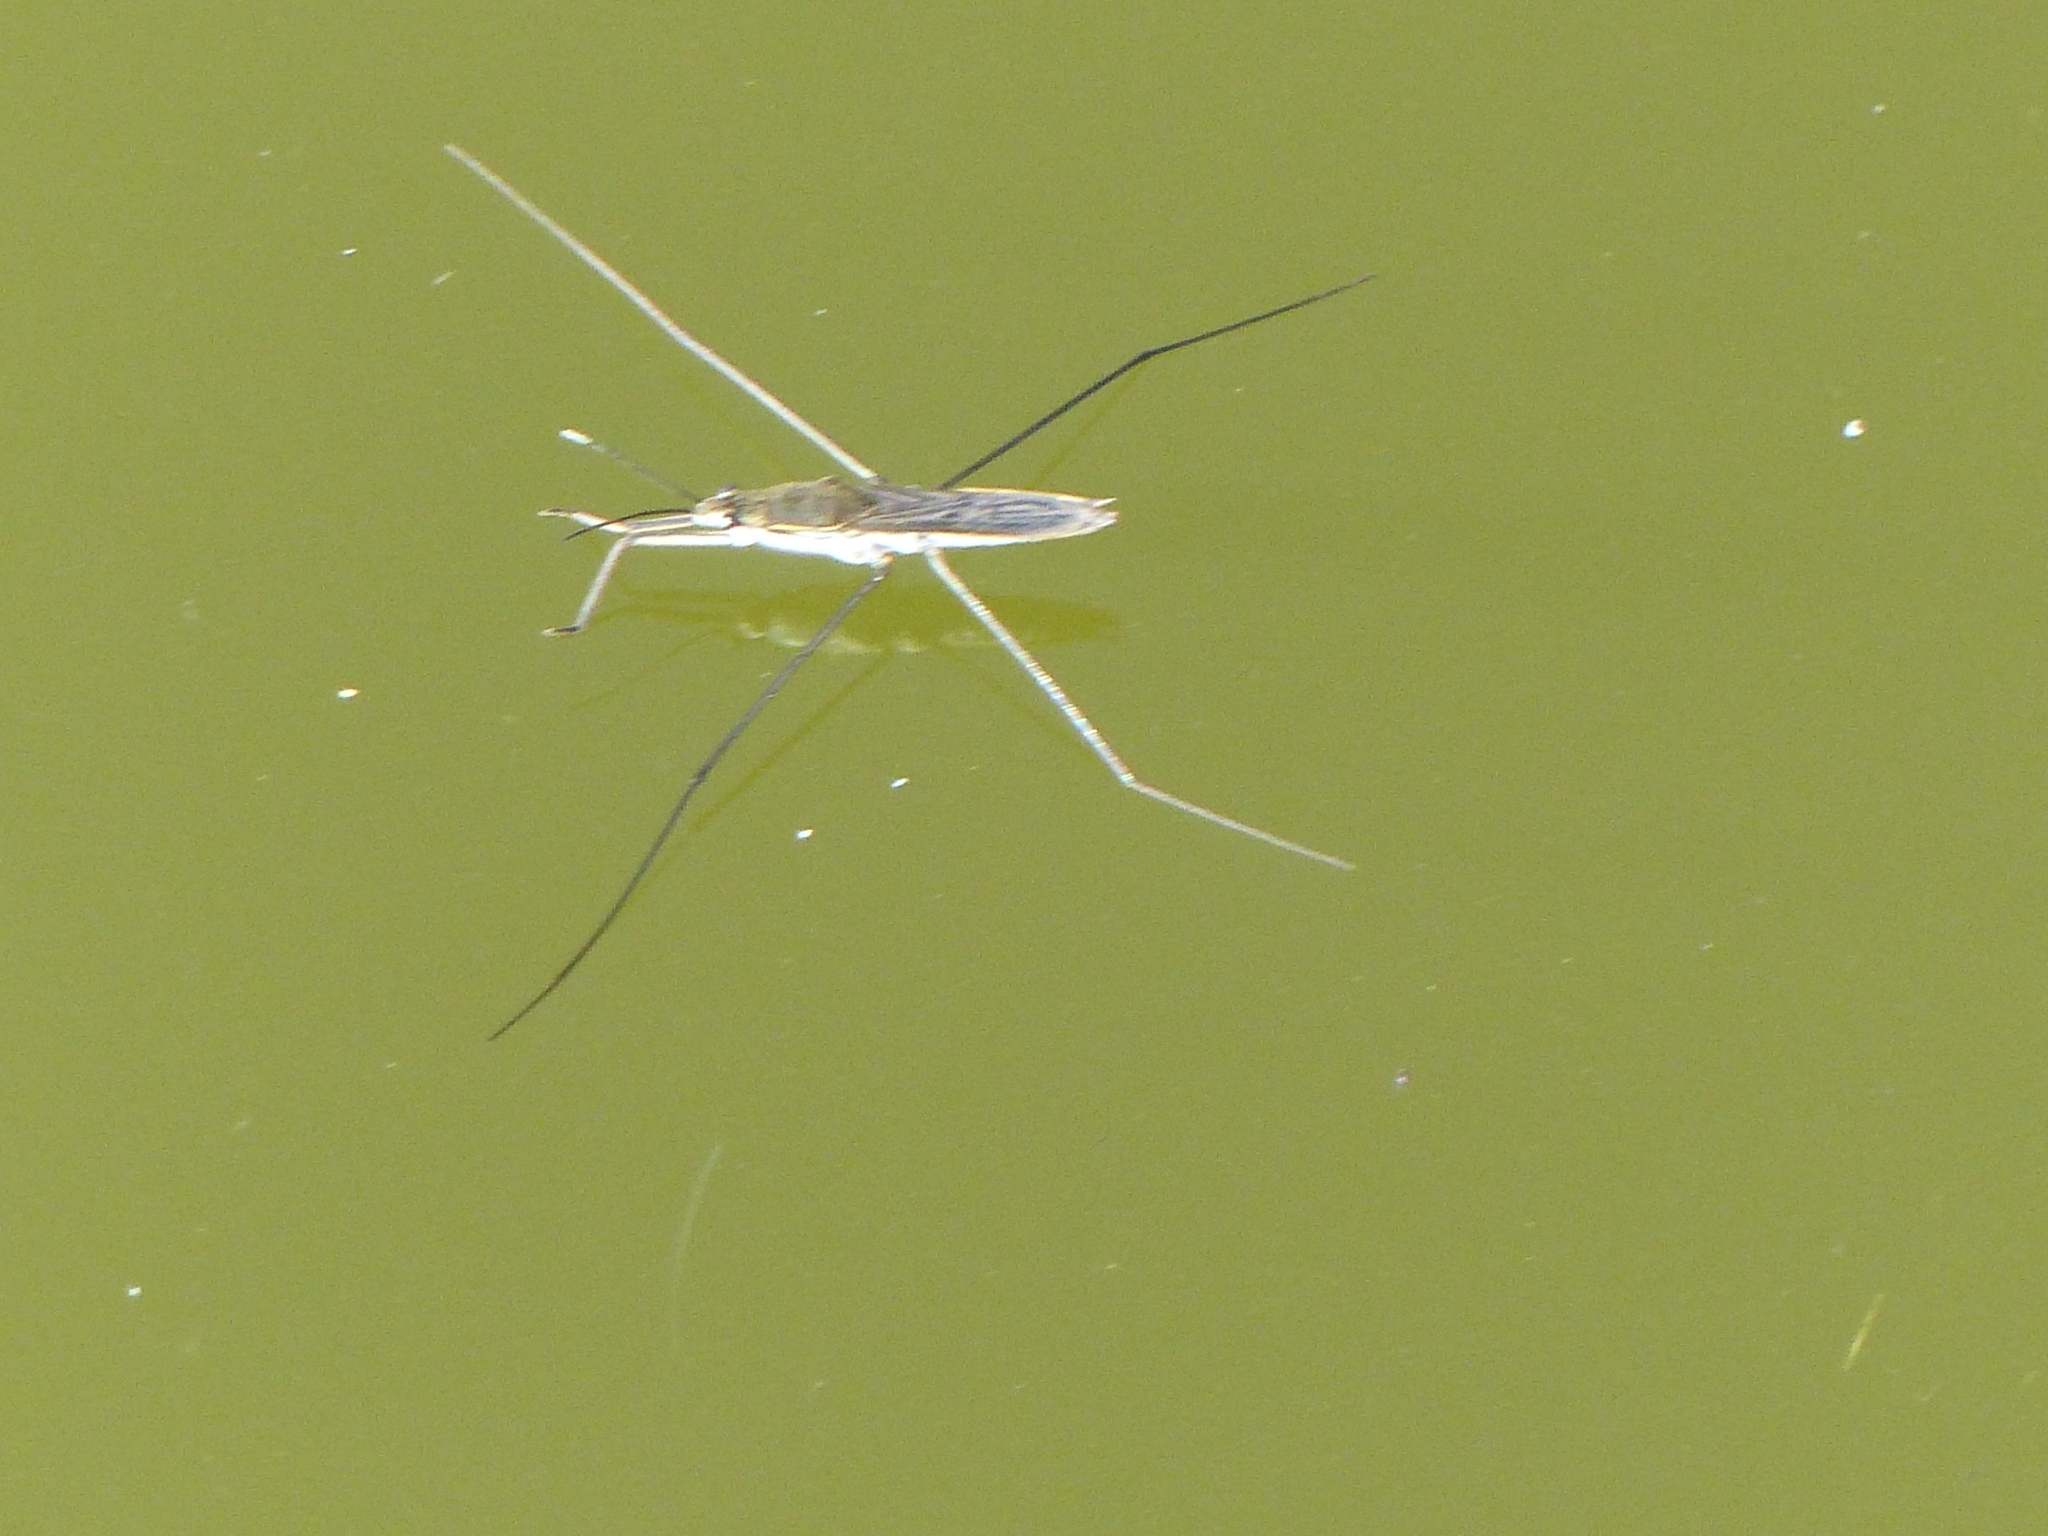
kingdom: Animalia
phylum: Arthropoda
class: Insecta
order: Hemiptera
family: Gerridae
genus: Aquarius
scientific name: Aquarius paludum
